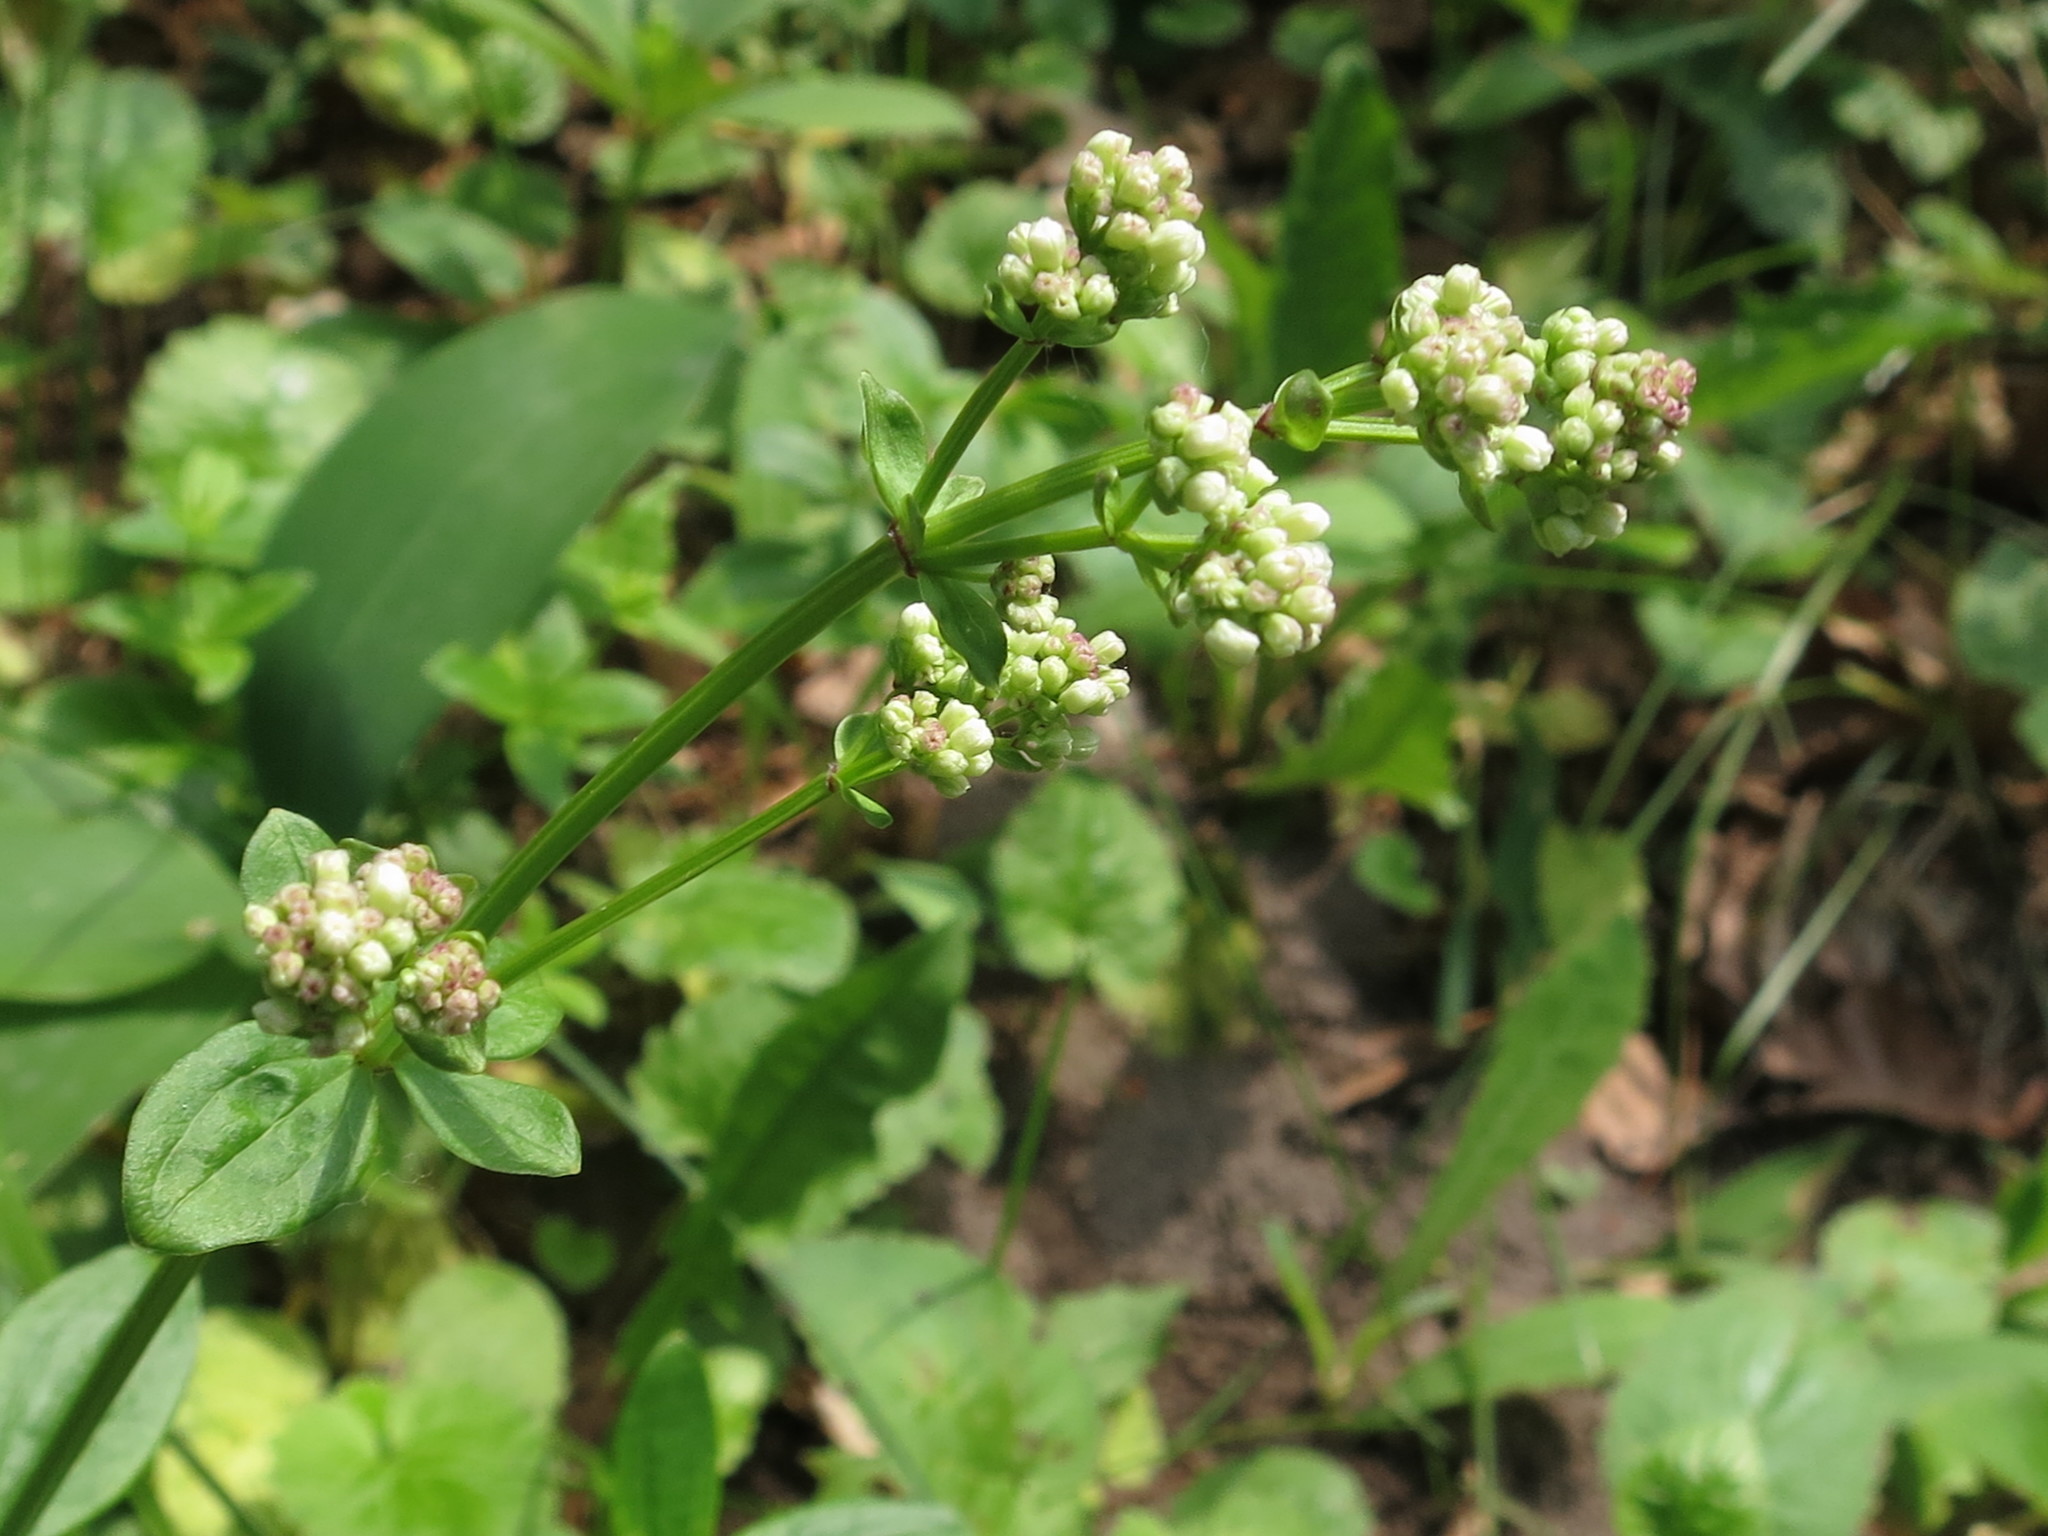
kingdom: Plantae
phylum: Tracheophyta
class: Magnoliopsida
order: Gentianales
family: Rubiaceae
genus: Galium
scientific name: Galium platygalium
